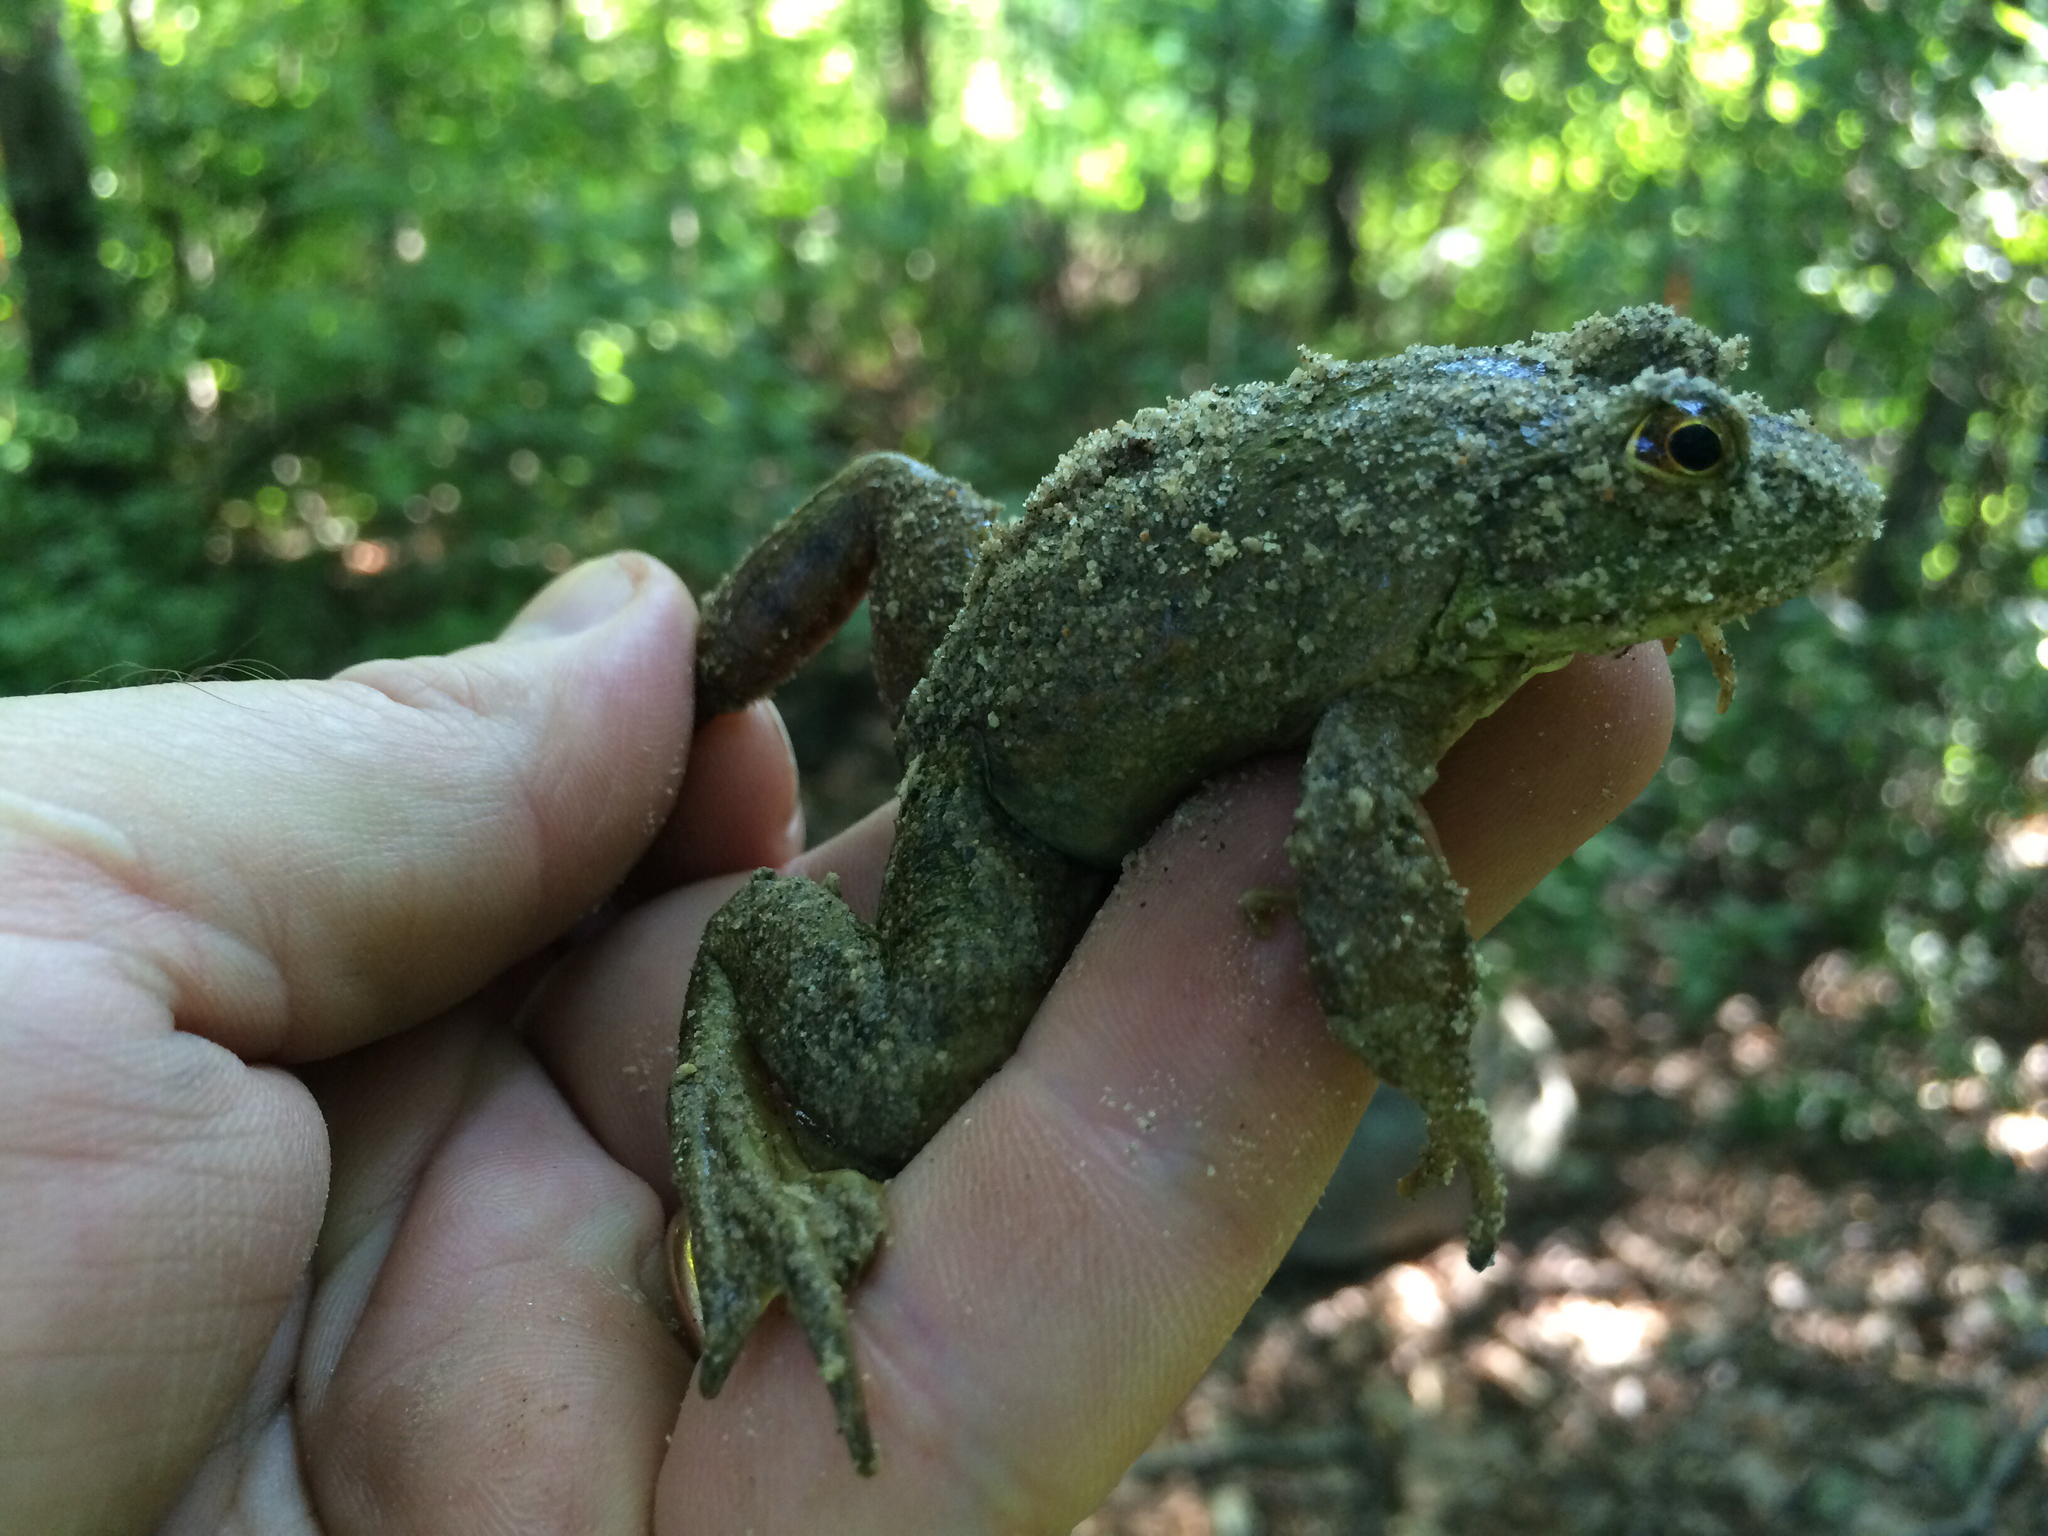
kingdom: Animalia
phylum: Chordata
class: Amphibia
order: Anura
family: Ranidae
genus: Lithobates
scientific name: Lithobates catesbeianus
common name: American bullfrog
